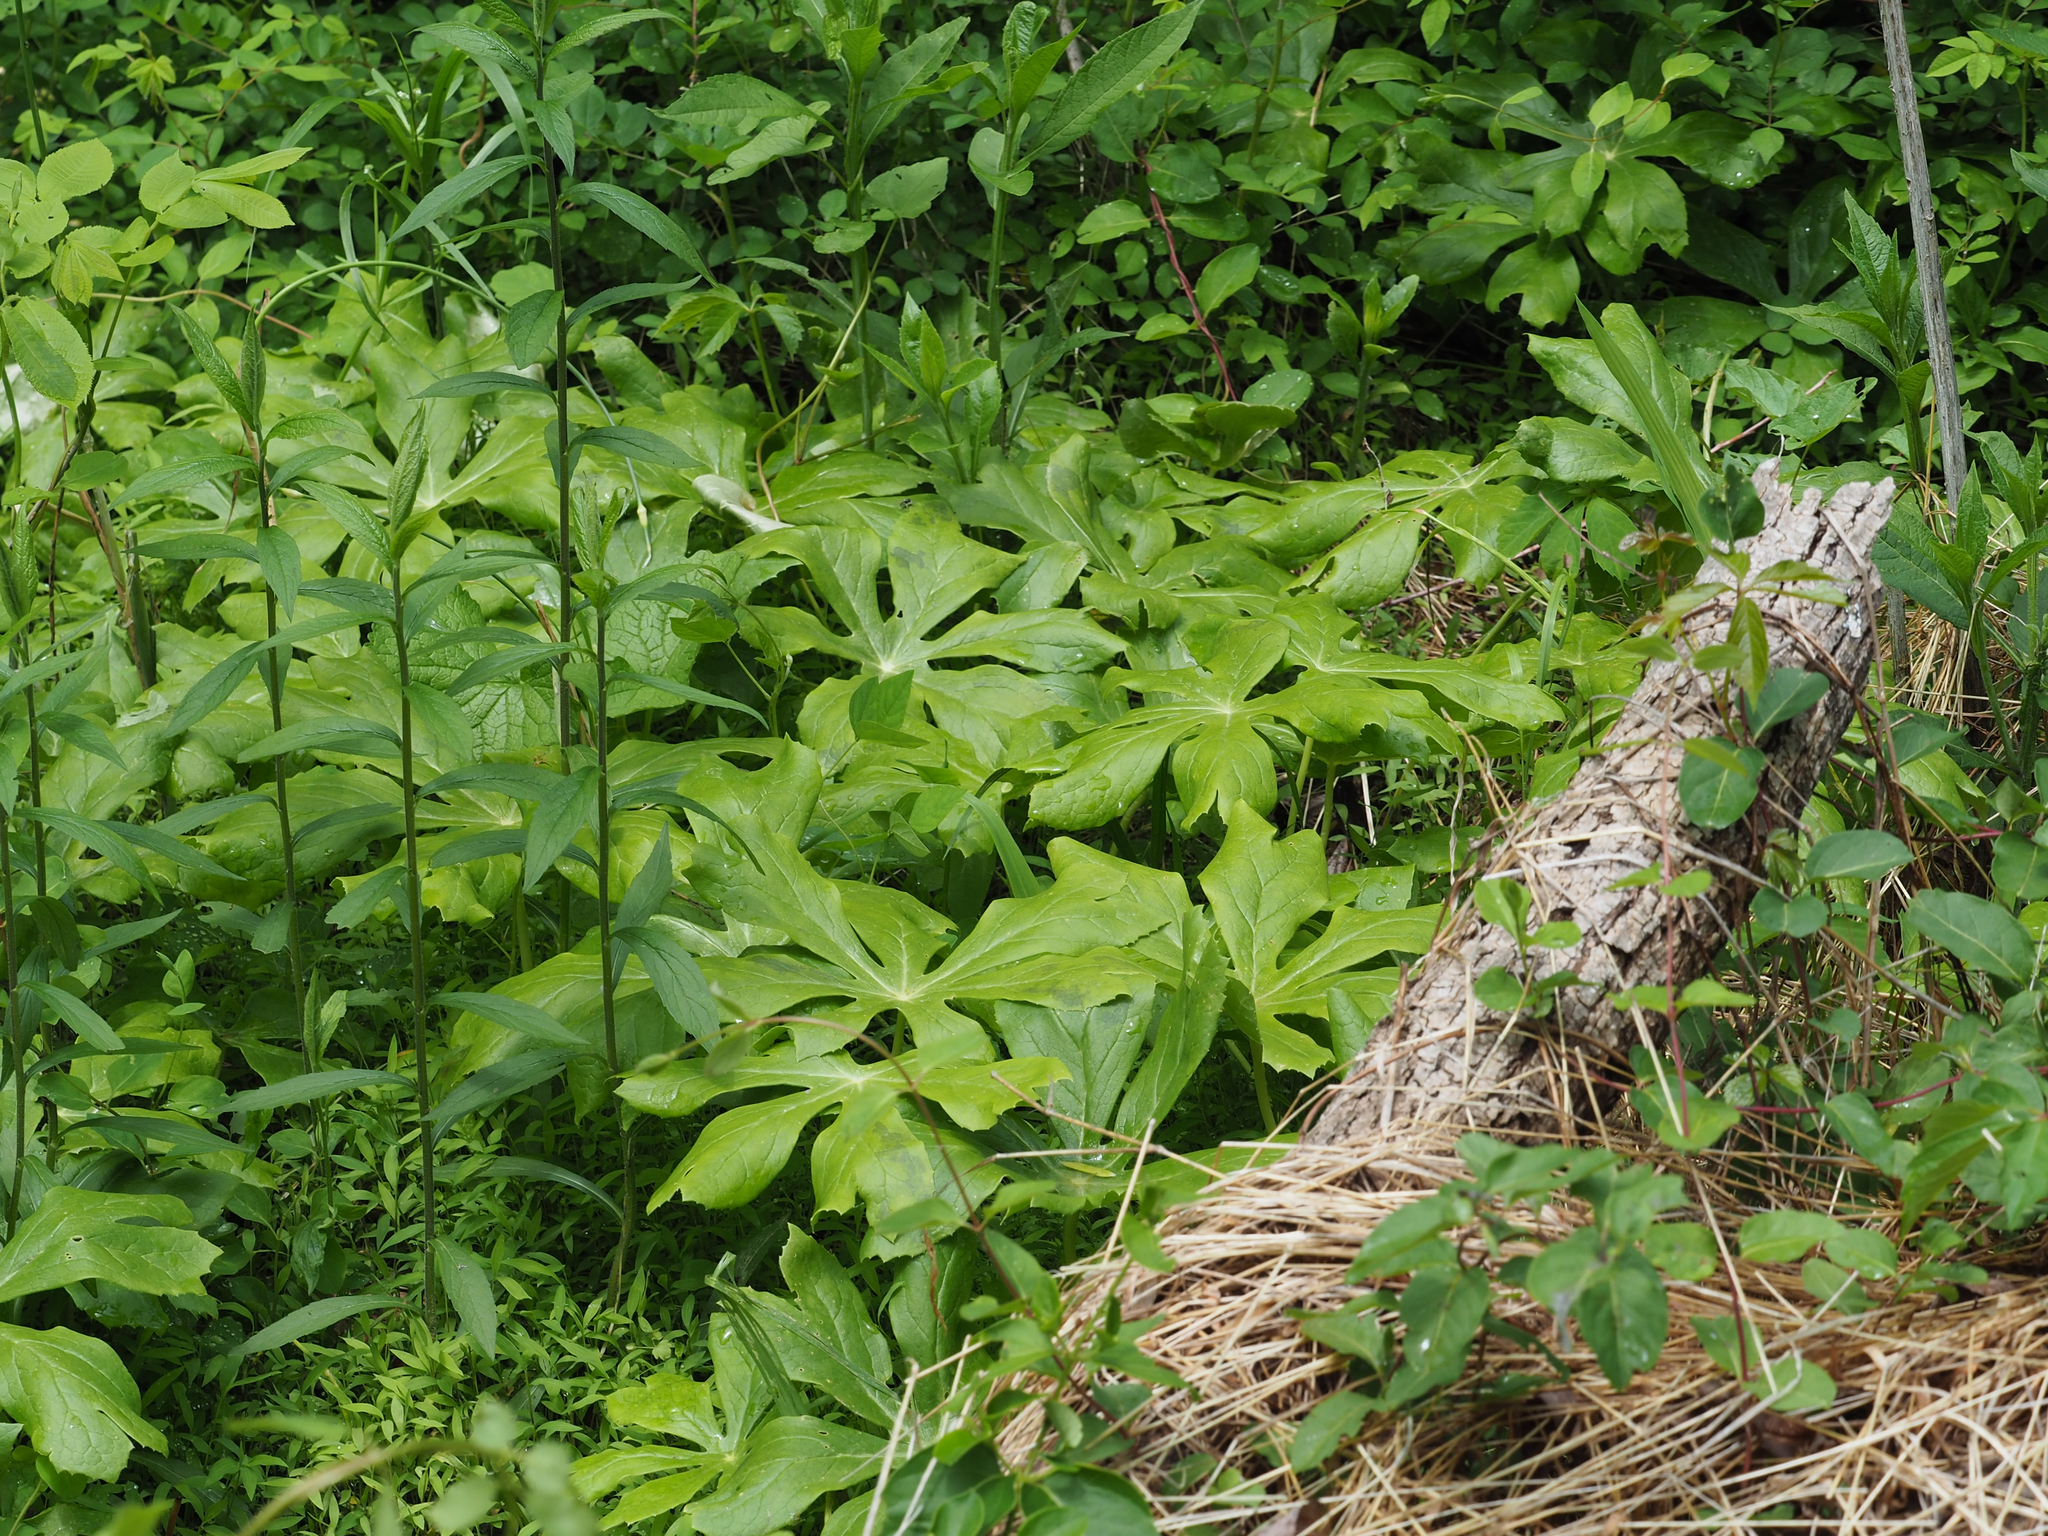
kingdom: Plantae
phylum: Tracheophyta
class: Magnoliopsida
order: Ranunculales
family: Berberidaceae
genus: Podophyllum
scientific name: Podophyllum peltatum
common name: Wild mandrake
